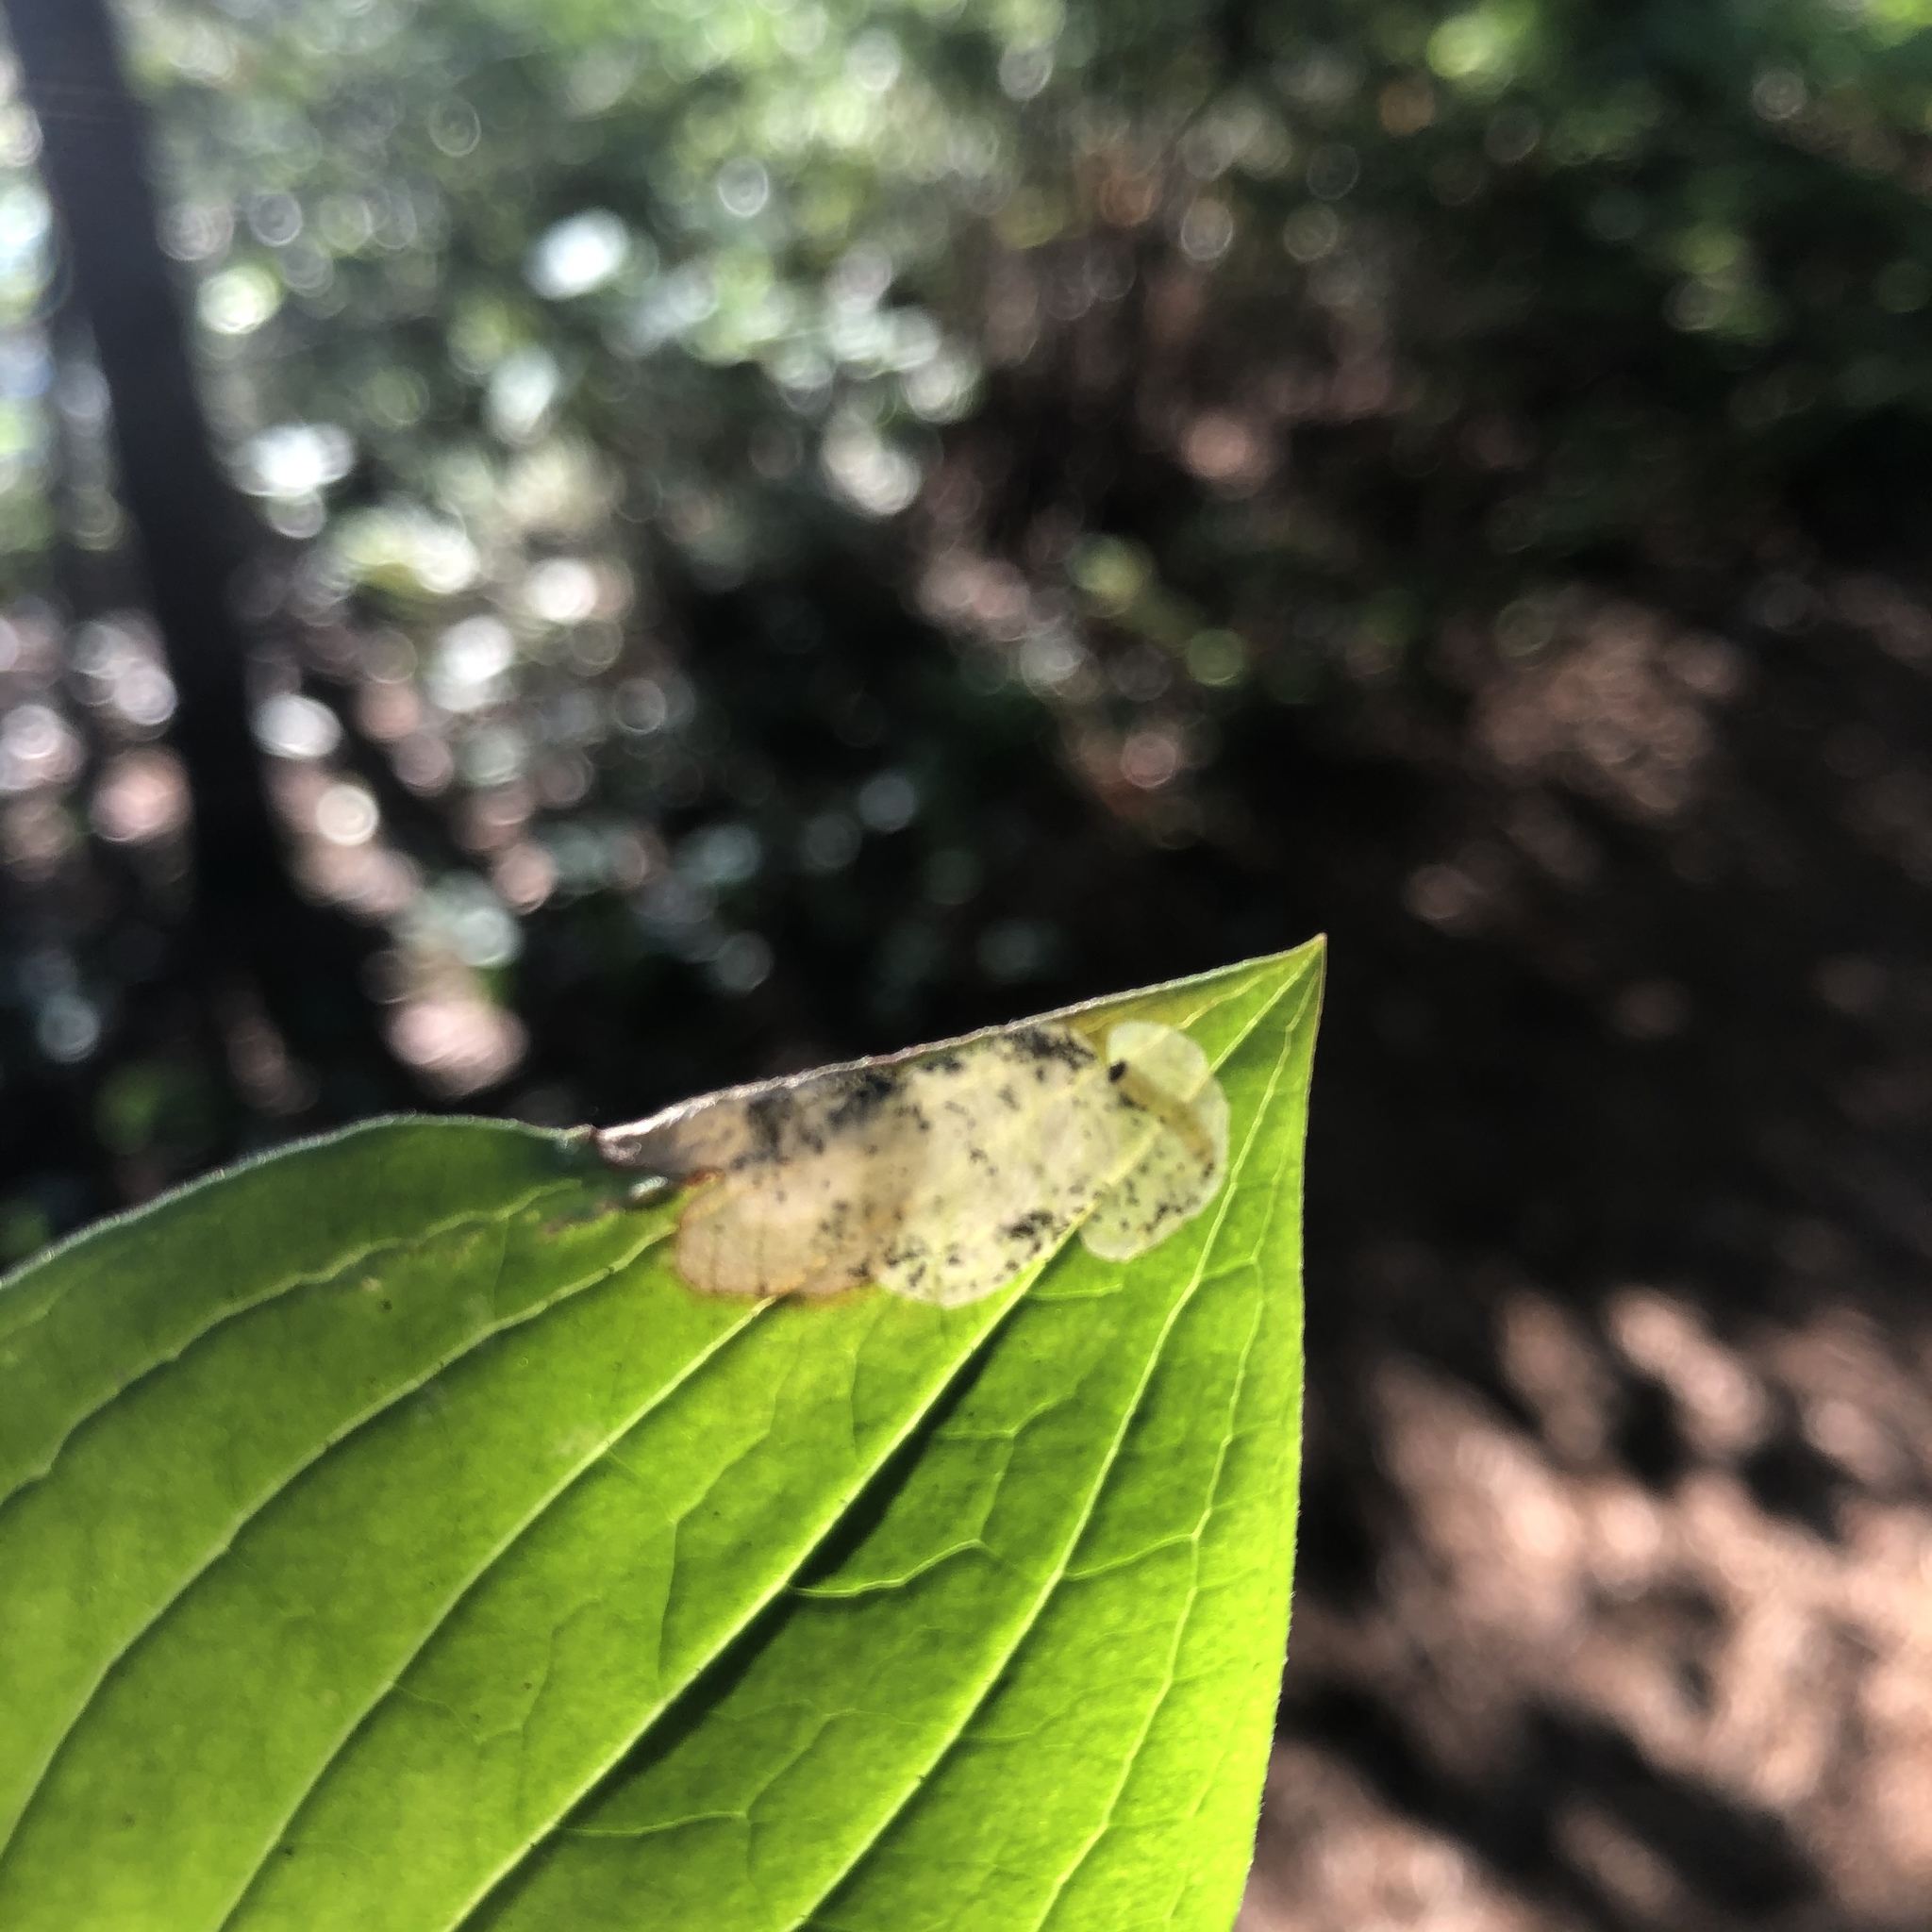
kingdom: Animalia
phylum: Arthropoda
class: Insecta
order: Lepidoptera
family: Heliozelidae
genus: Antispila
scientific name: Antispila freemani
